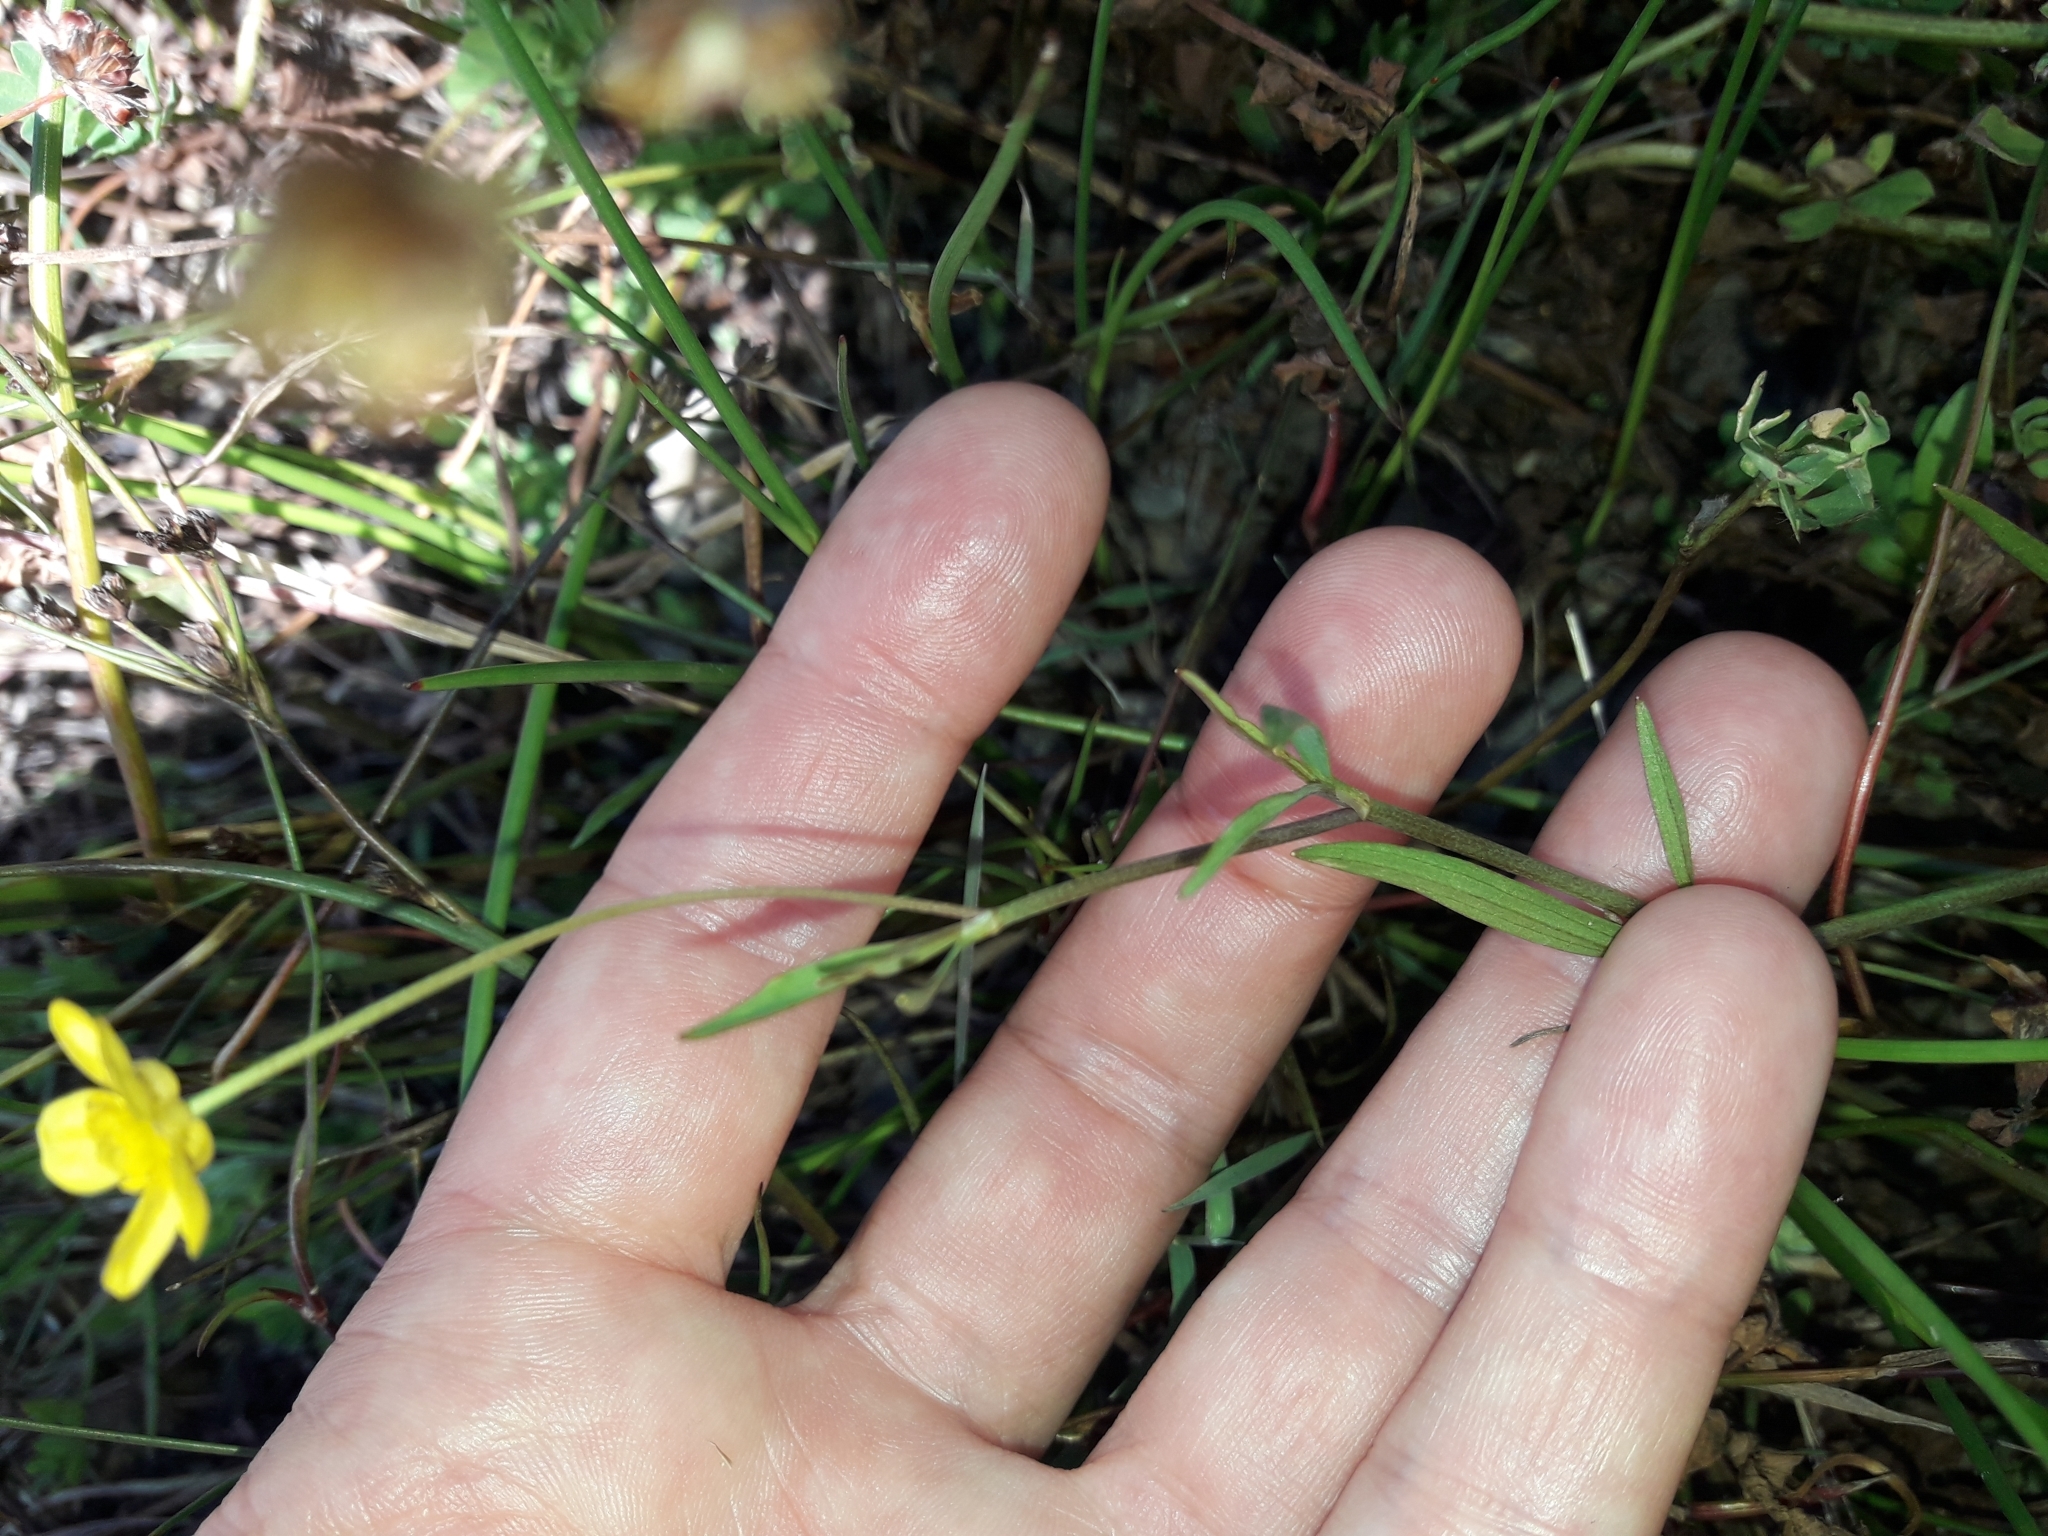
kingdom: Plantae
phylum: Tracheophyta
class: Magnoliopsida
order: Ranunculales
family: Ranunculaceae
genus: Ranunculus
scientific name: Ranunculus flammula
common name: Lesser spearwort
